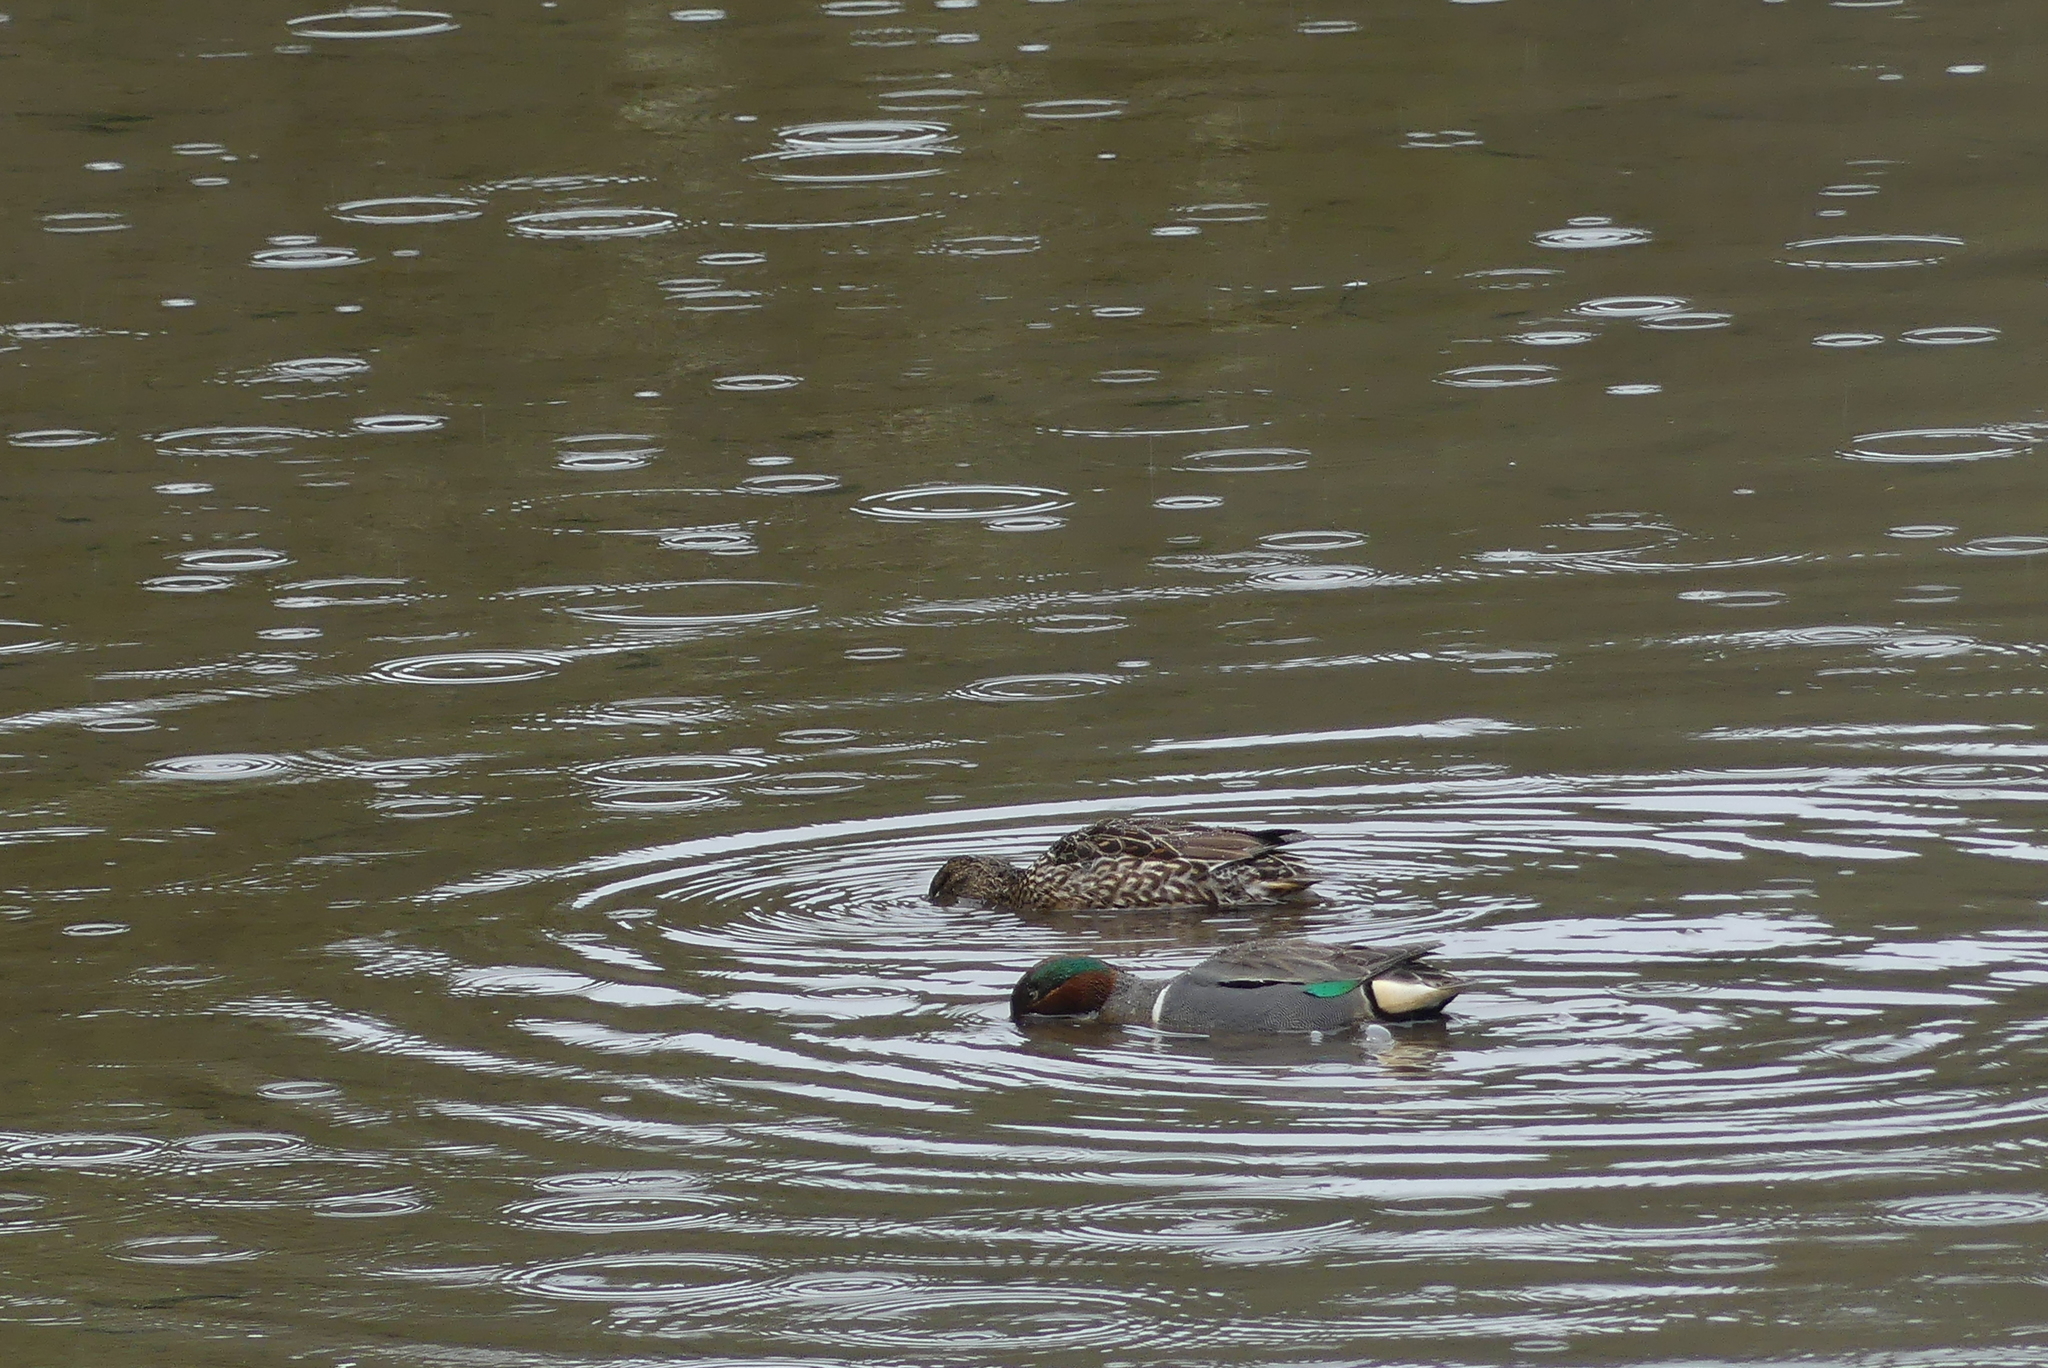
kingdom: Animalia
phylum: Chordata
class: Aves
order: Anseriformes
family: Anatidae
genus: Anas
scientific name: Anas crecca
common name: Eurasian teal
